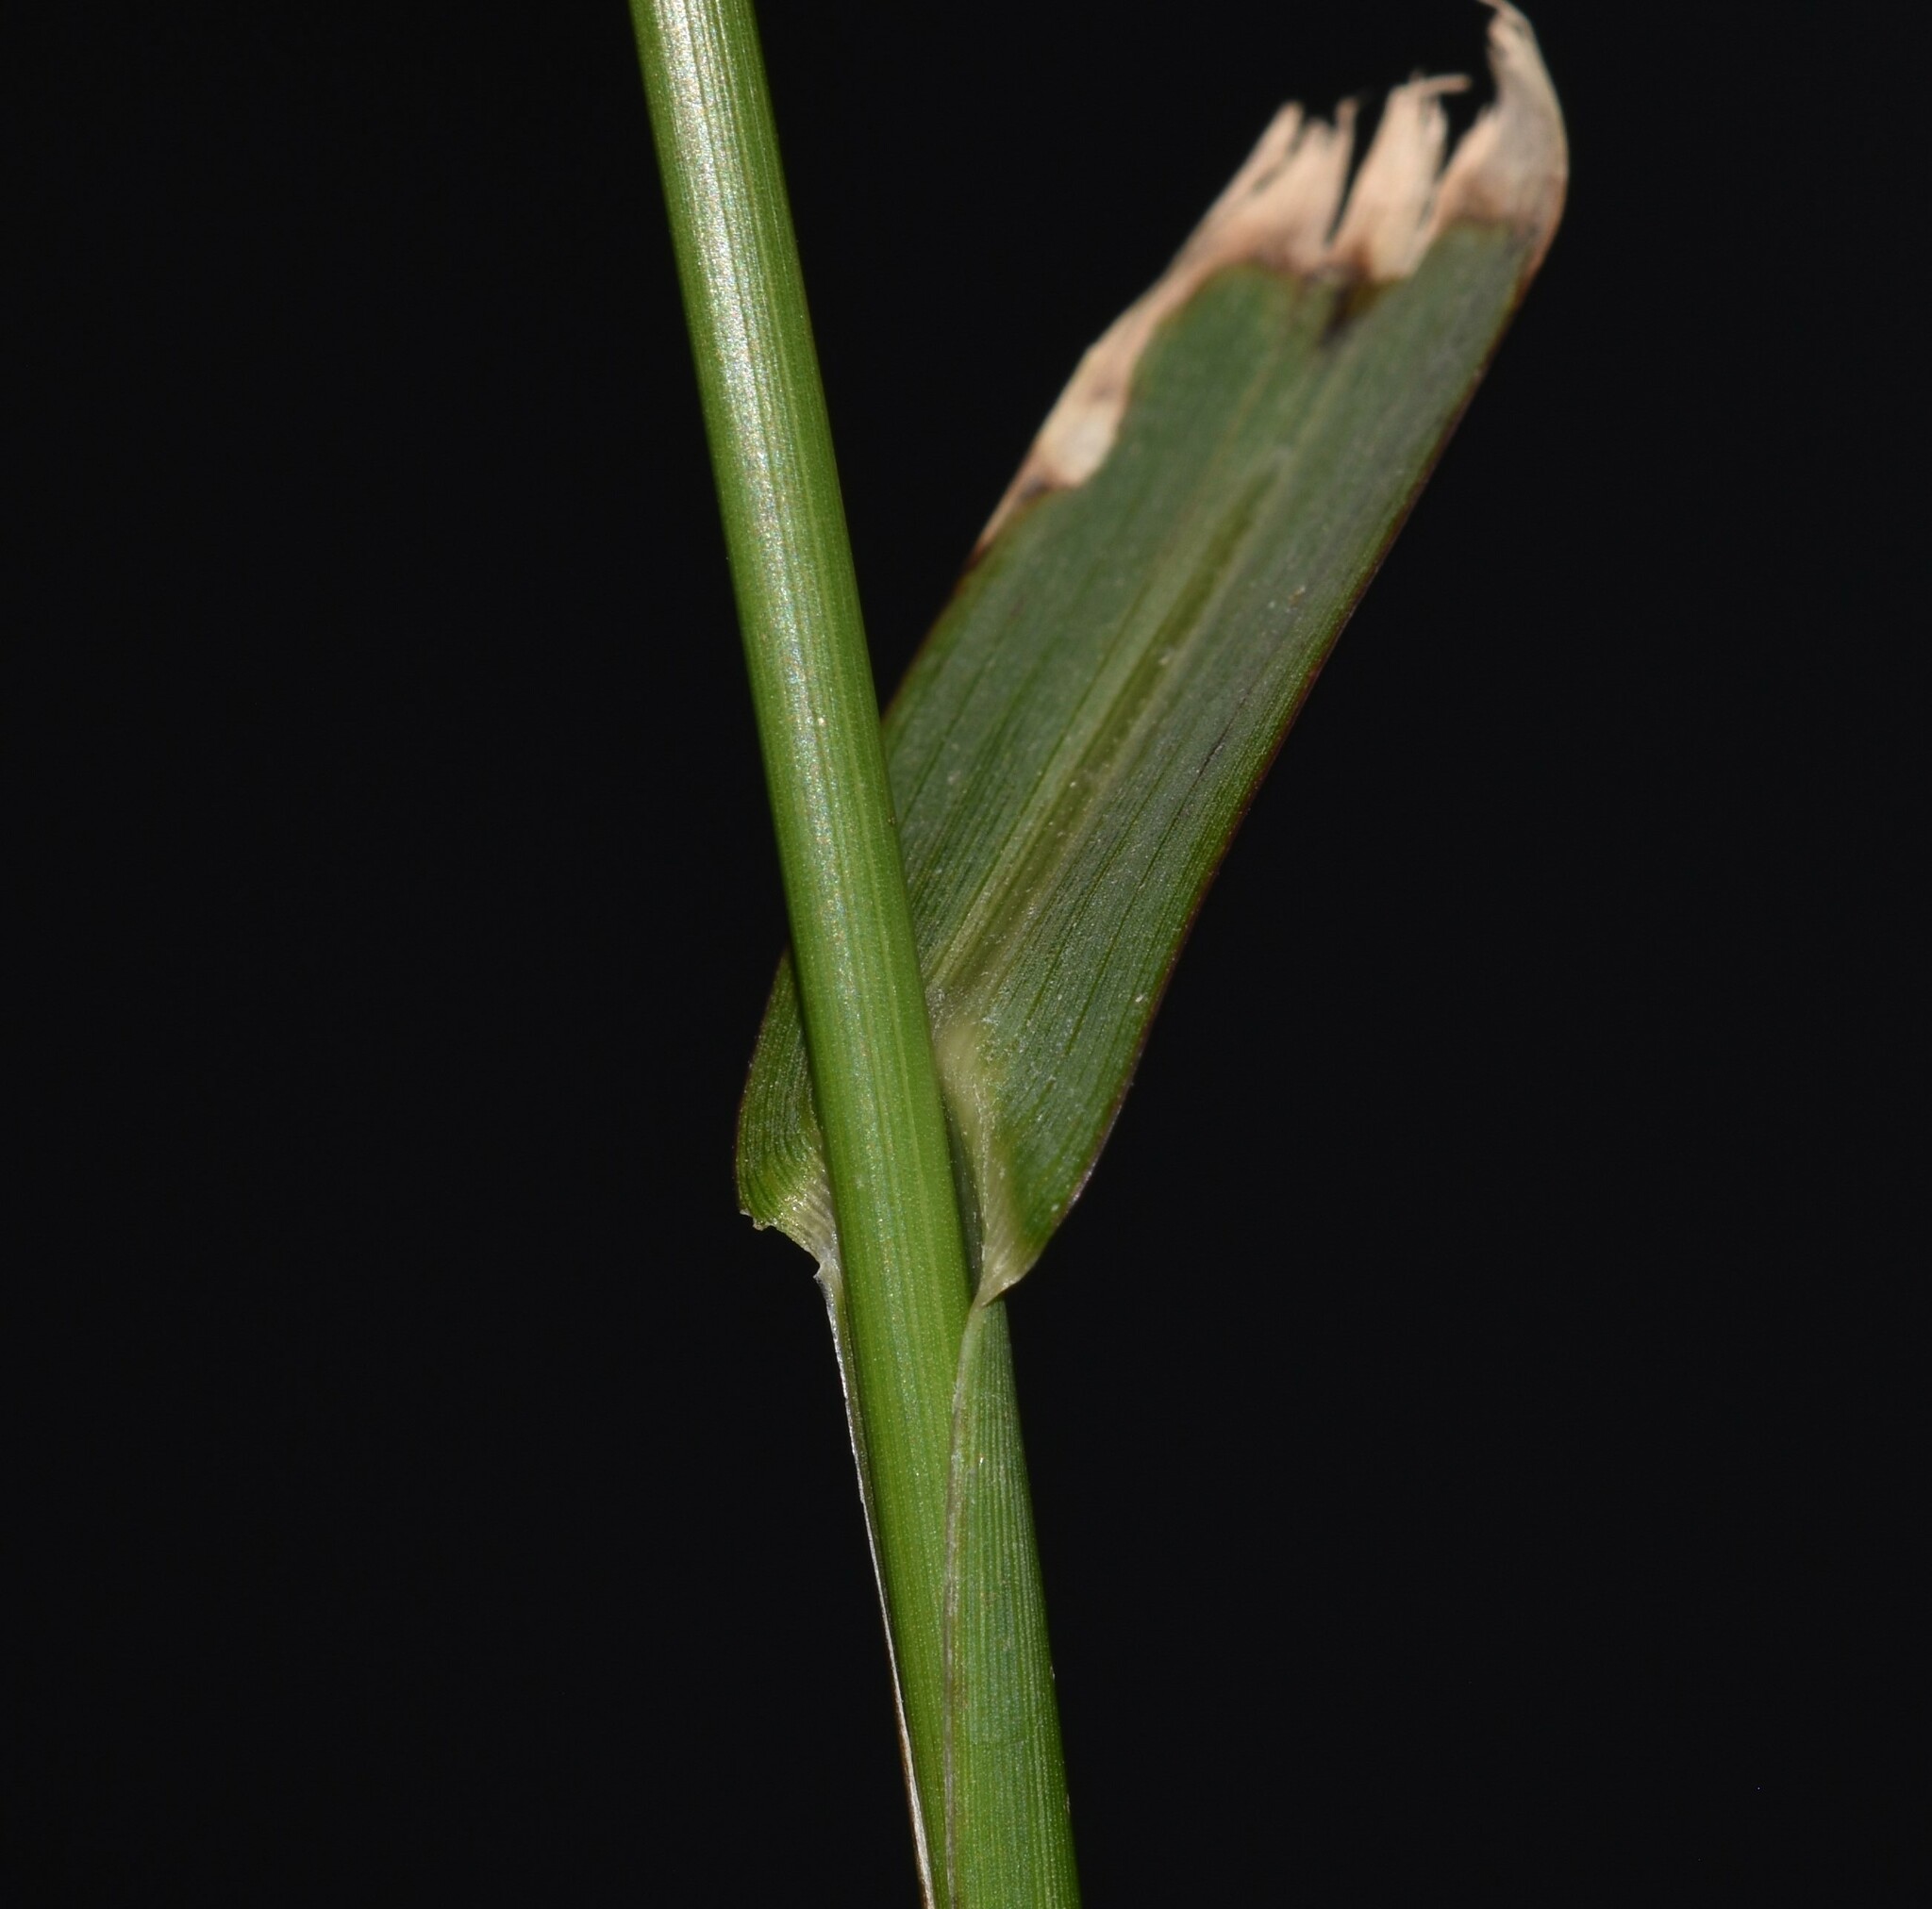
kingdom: Plantae
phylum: Tracheophyta
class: Liliopsida
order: Poales
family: Poaceae
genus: Echinochloa
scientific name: Echinochloa crus-galli
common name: Cockspur
